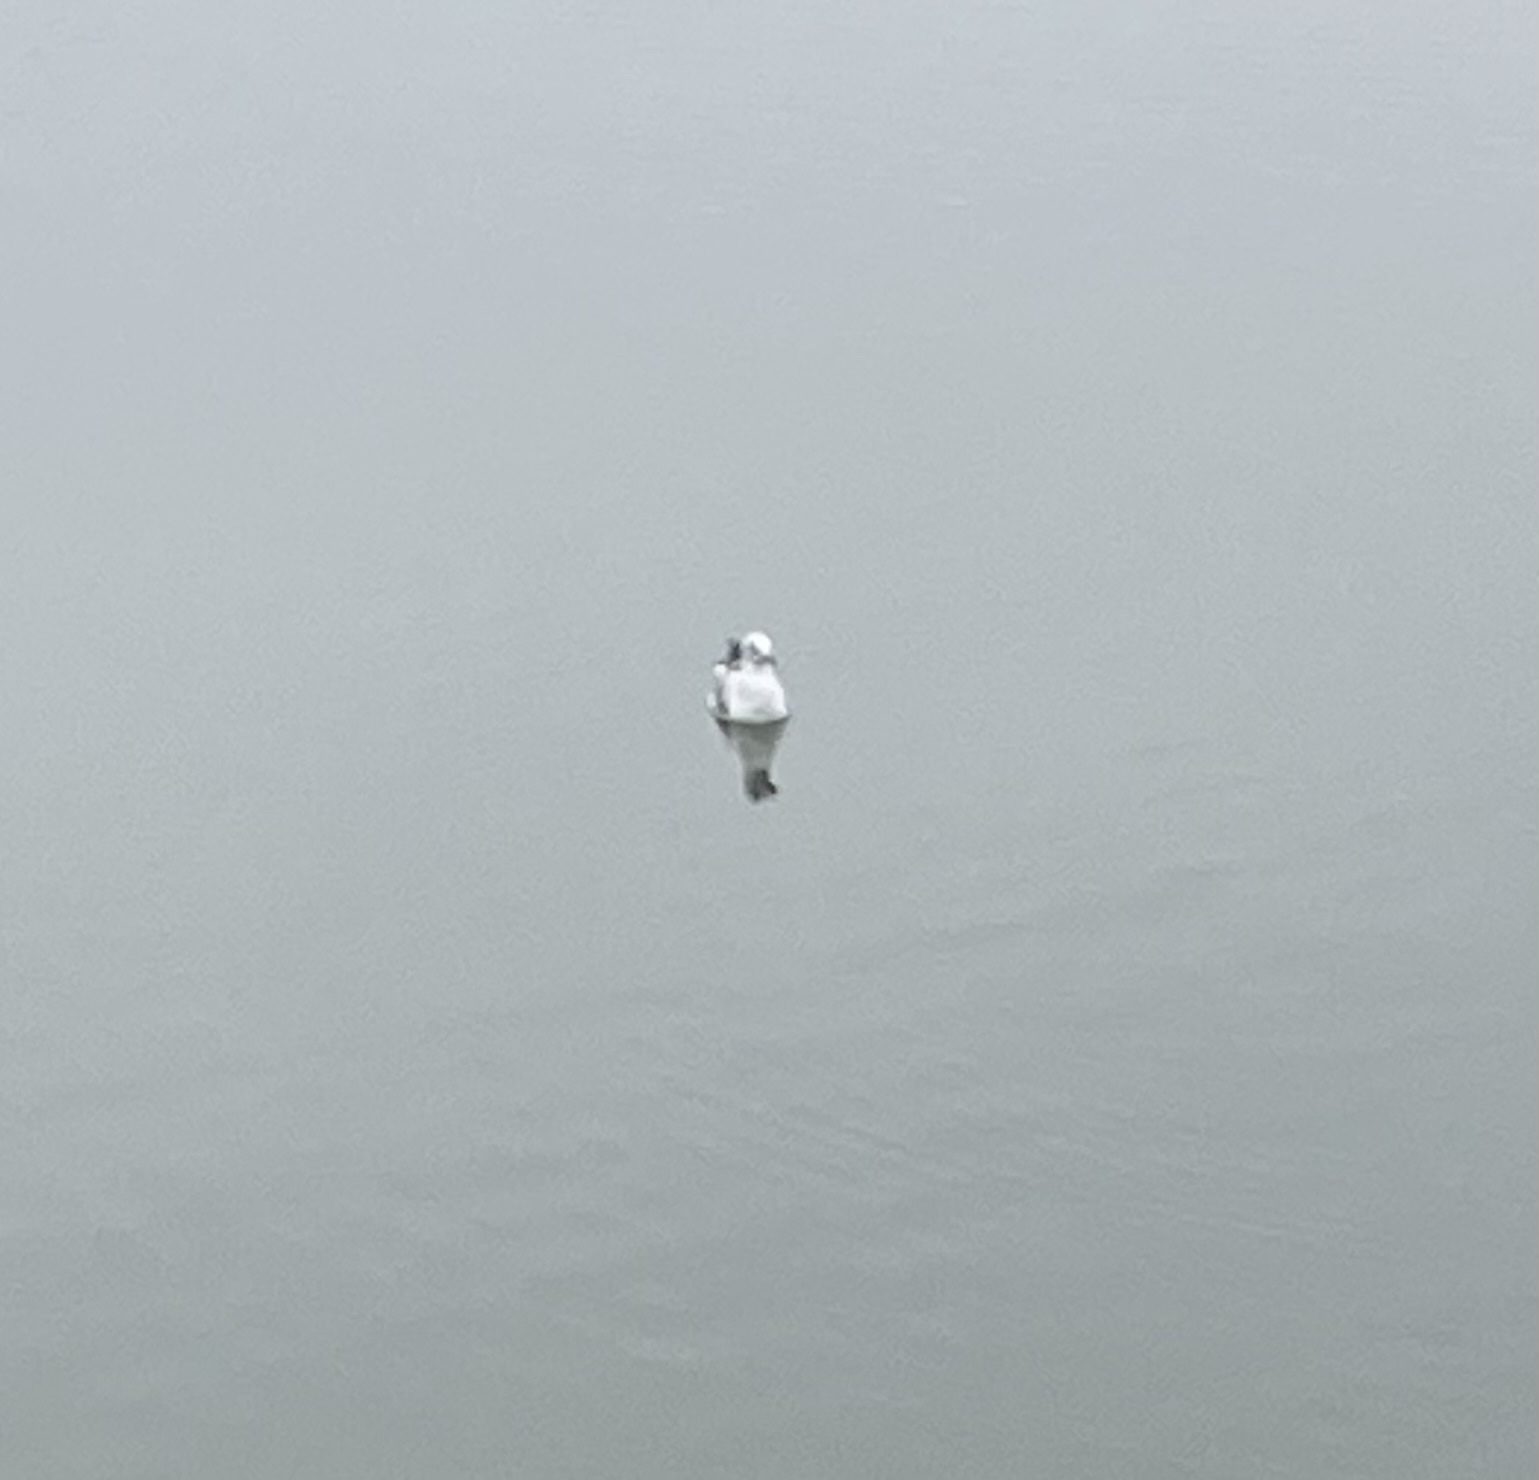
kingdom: Animalia
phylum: Chordata
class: Aves
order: Charadriiformes
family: Laridae
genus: Chroicocephalus
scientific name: Chroicocephalus ridibundus
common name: Black-headed gull
